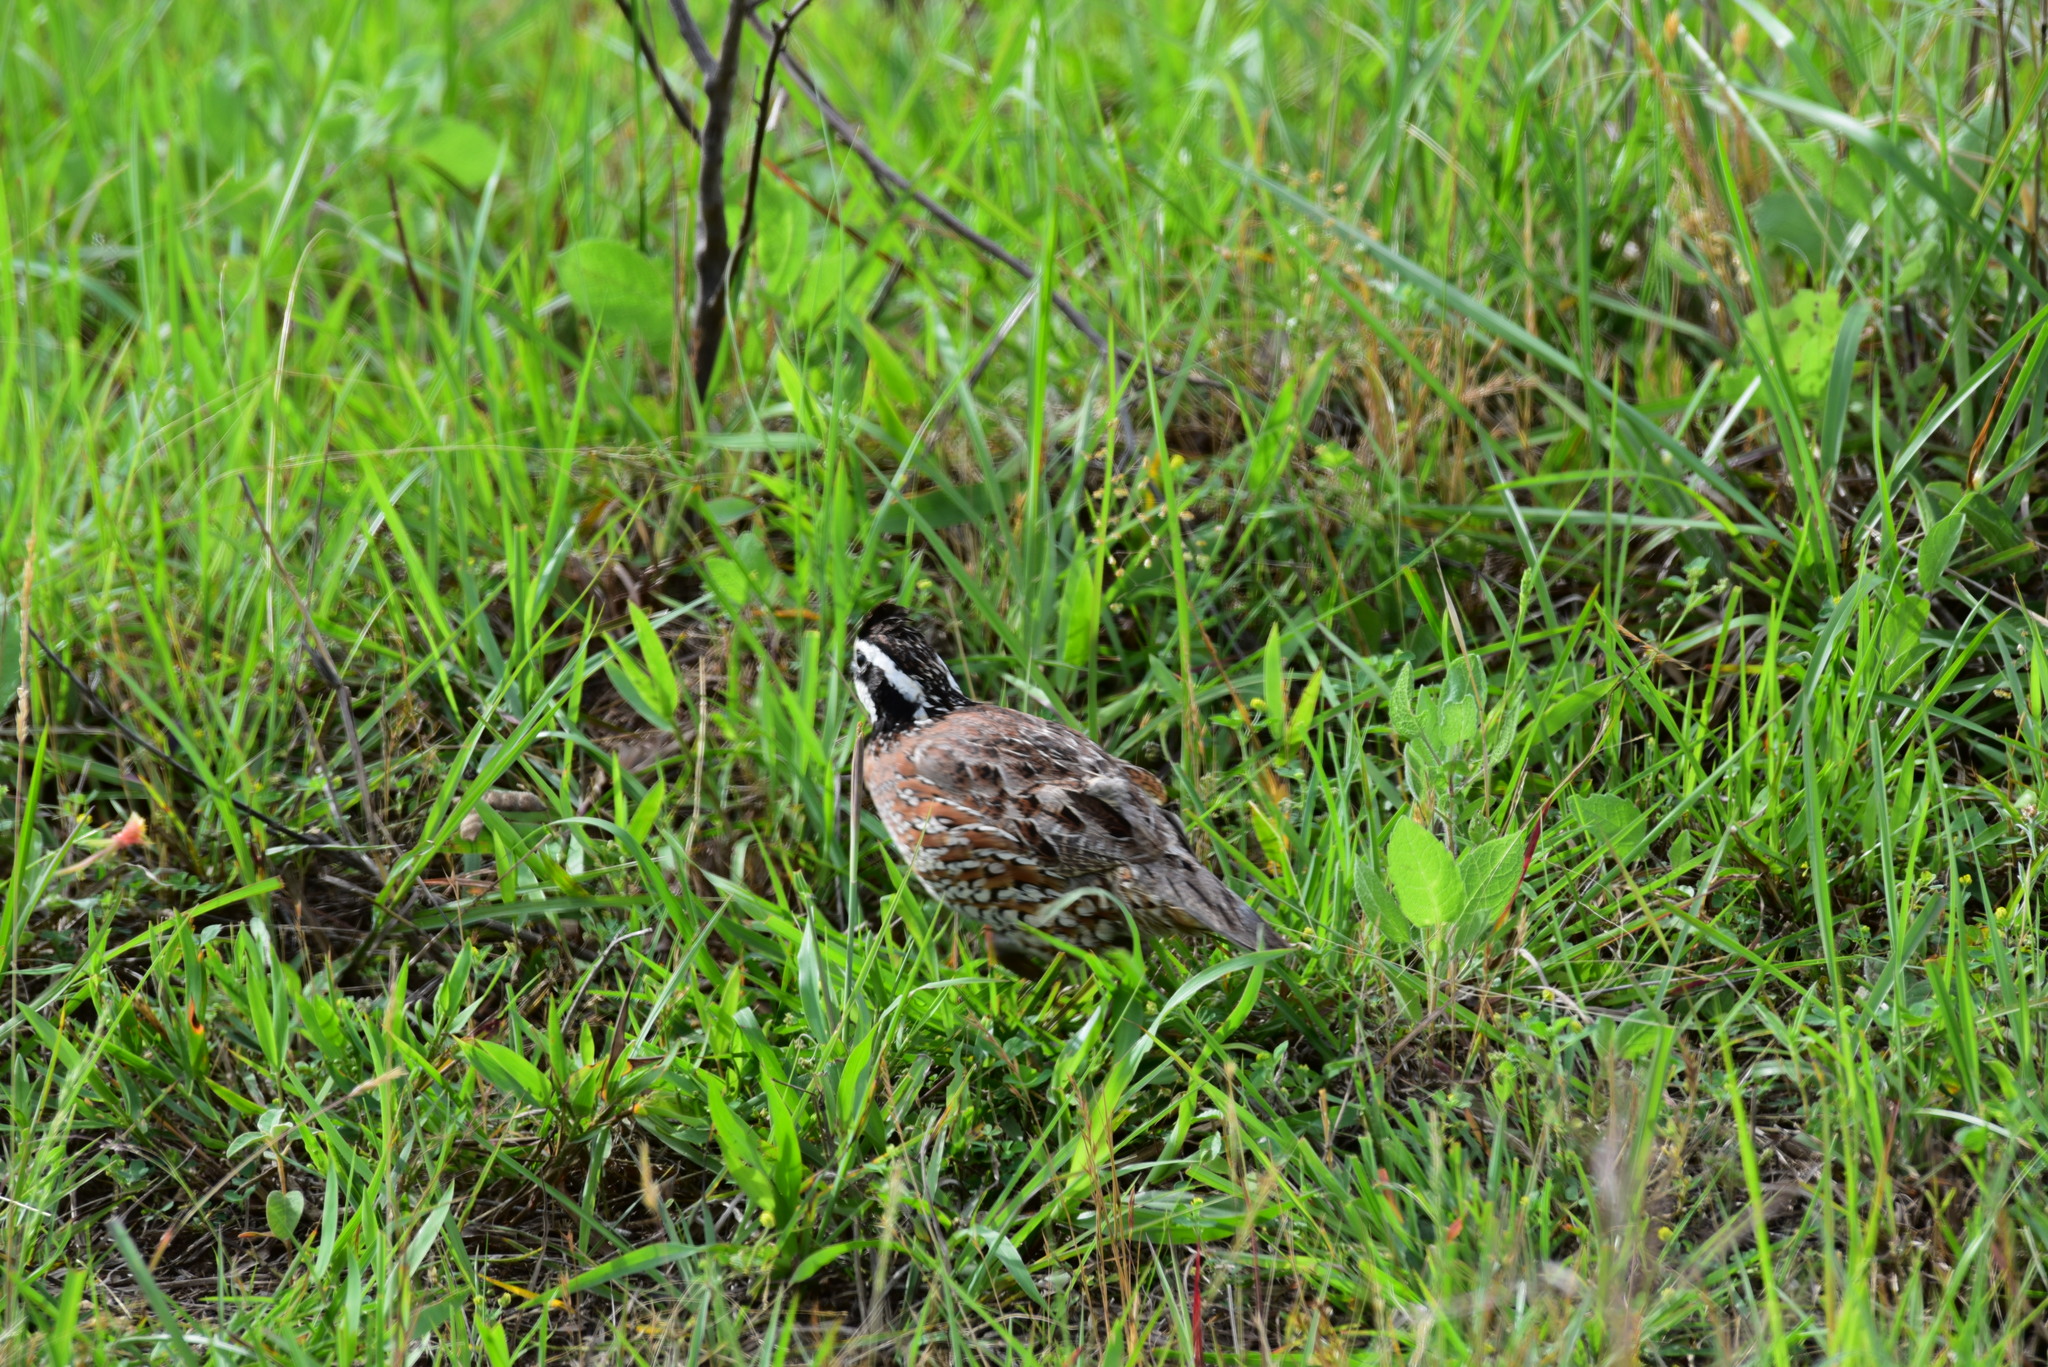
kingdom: Animalia
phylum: Chordata
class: Aves
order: Galliformes
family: Odontophoridae
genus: Colinus
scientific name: Colinus virginianus
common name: Northern bobwhite
